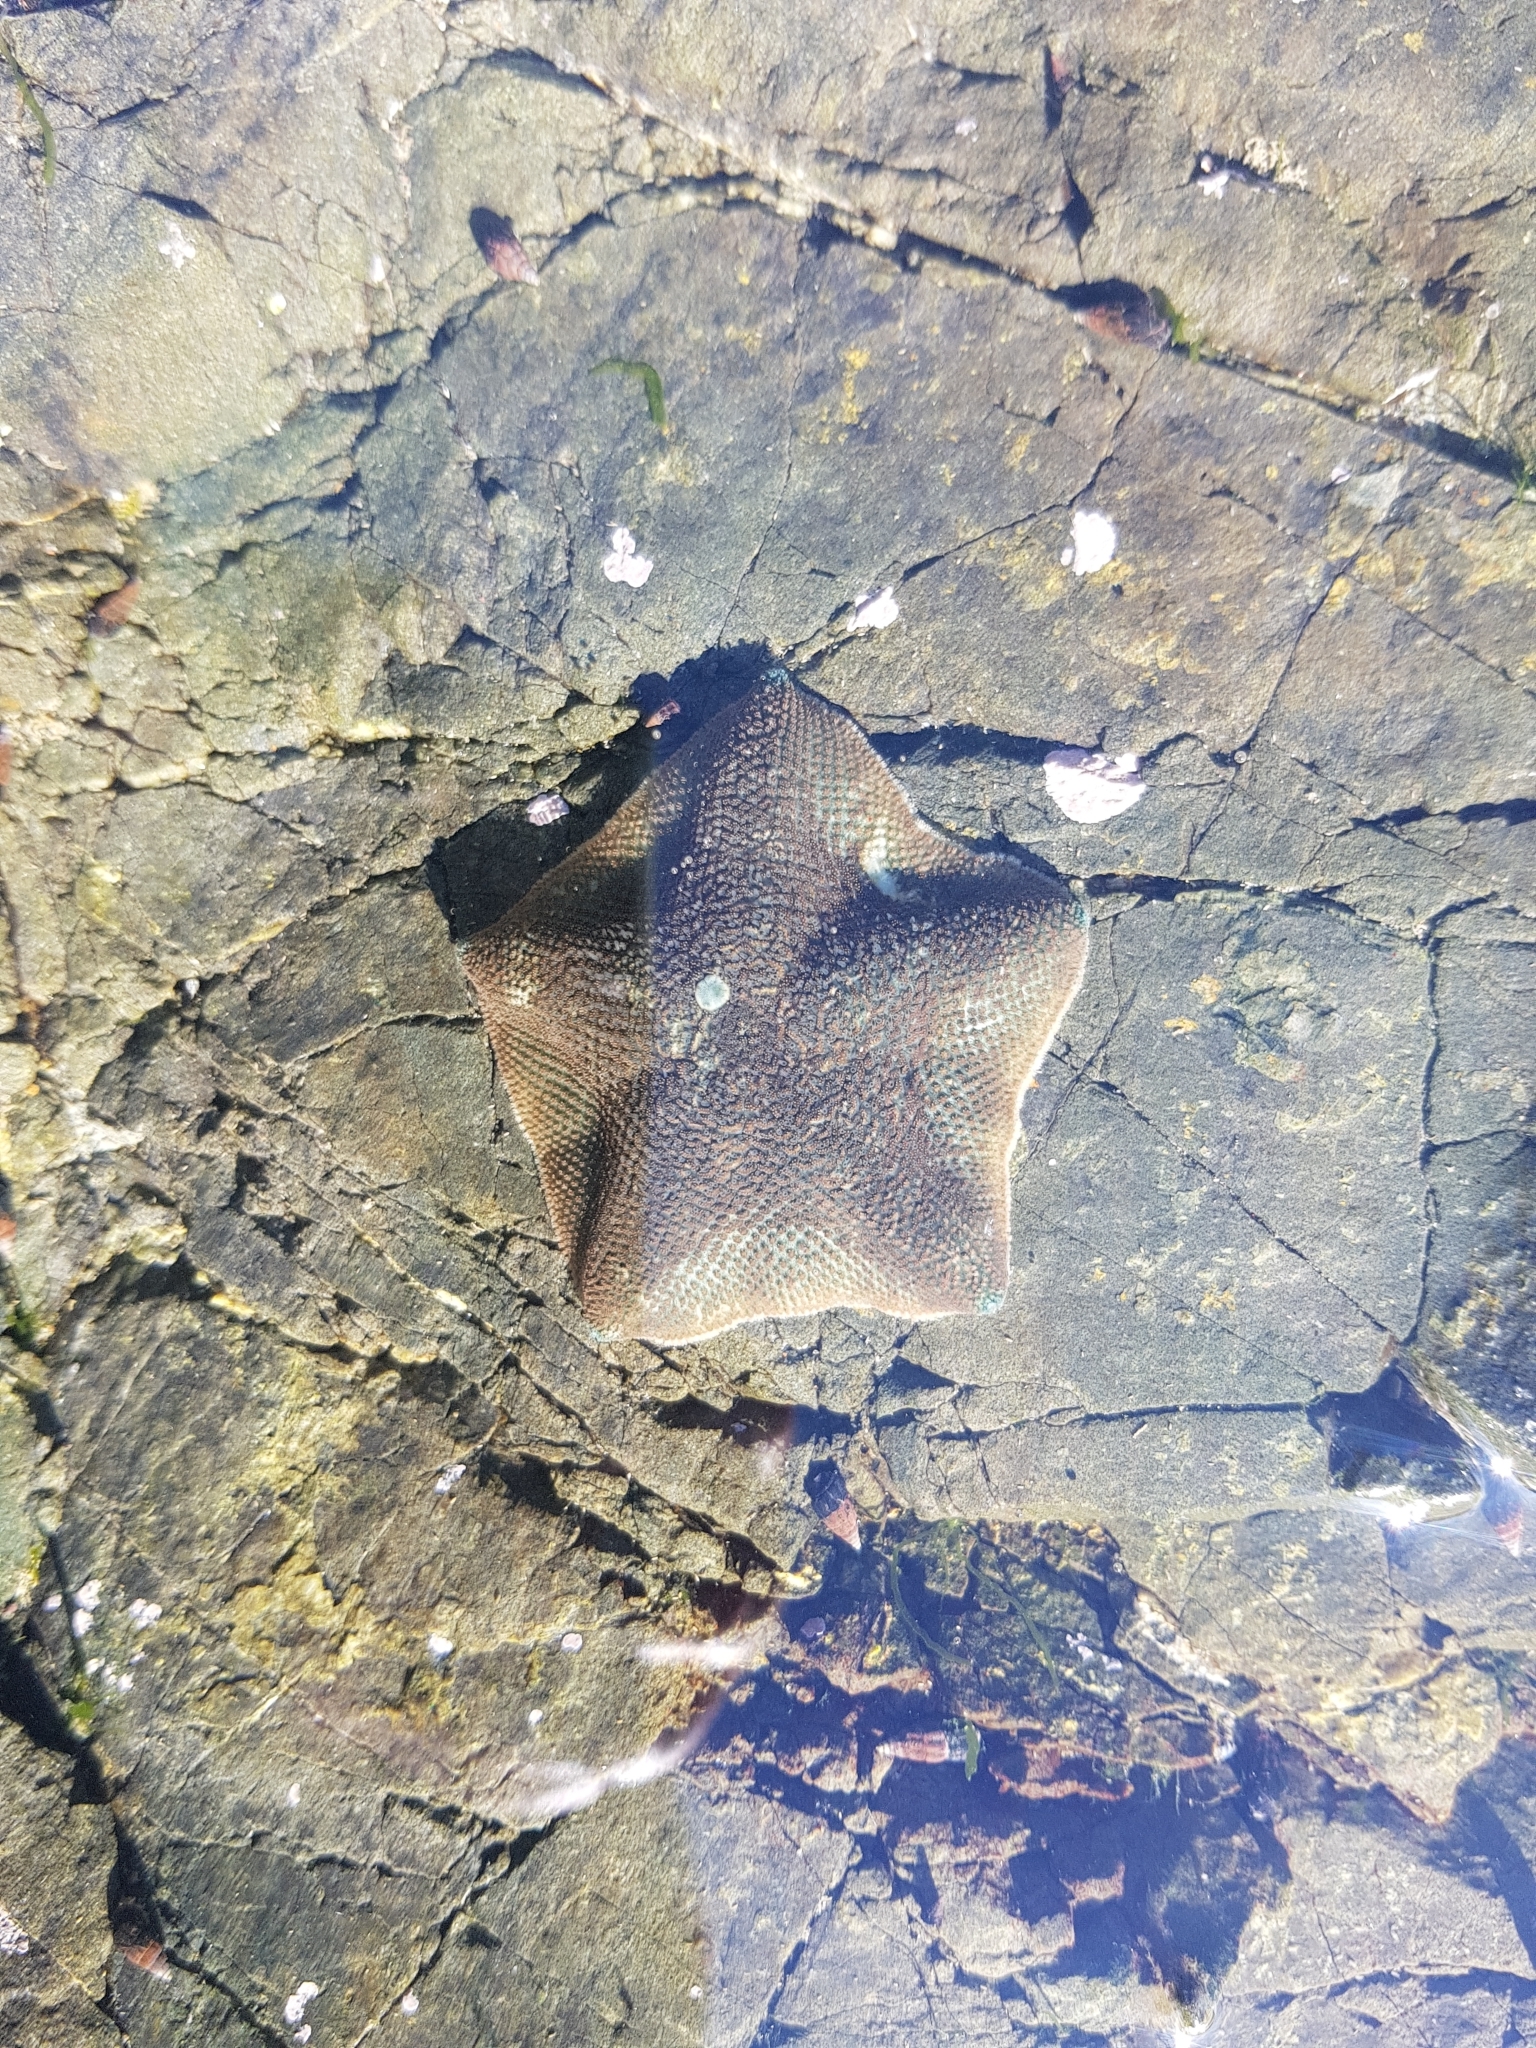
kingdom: Animalia
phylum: Echinodermata
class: Asteroidea
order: Valvatida
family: Asterinidae
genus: Patiriella
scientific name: Patiriella regularis
